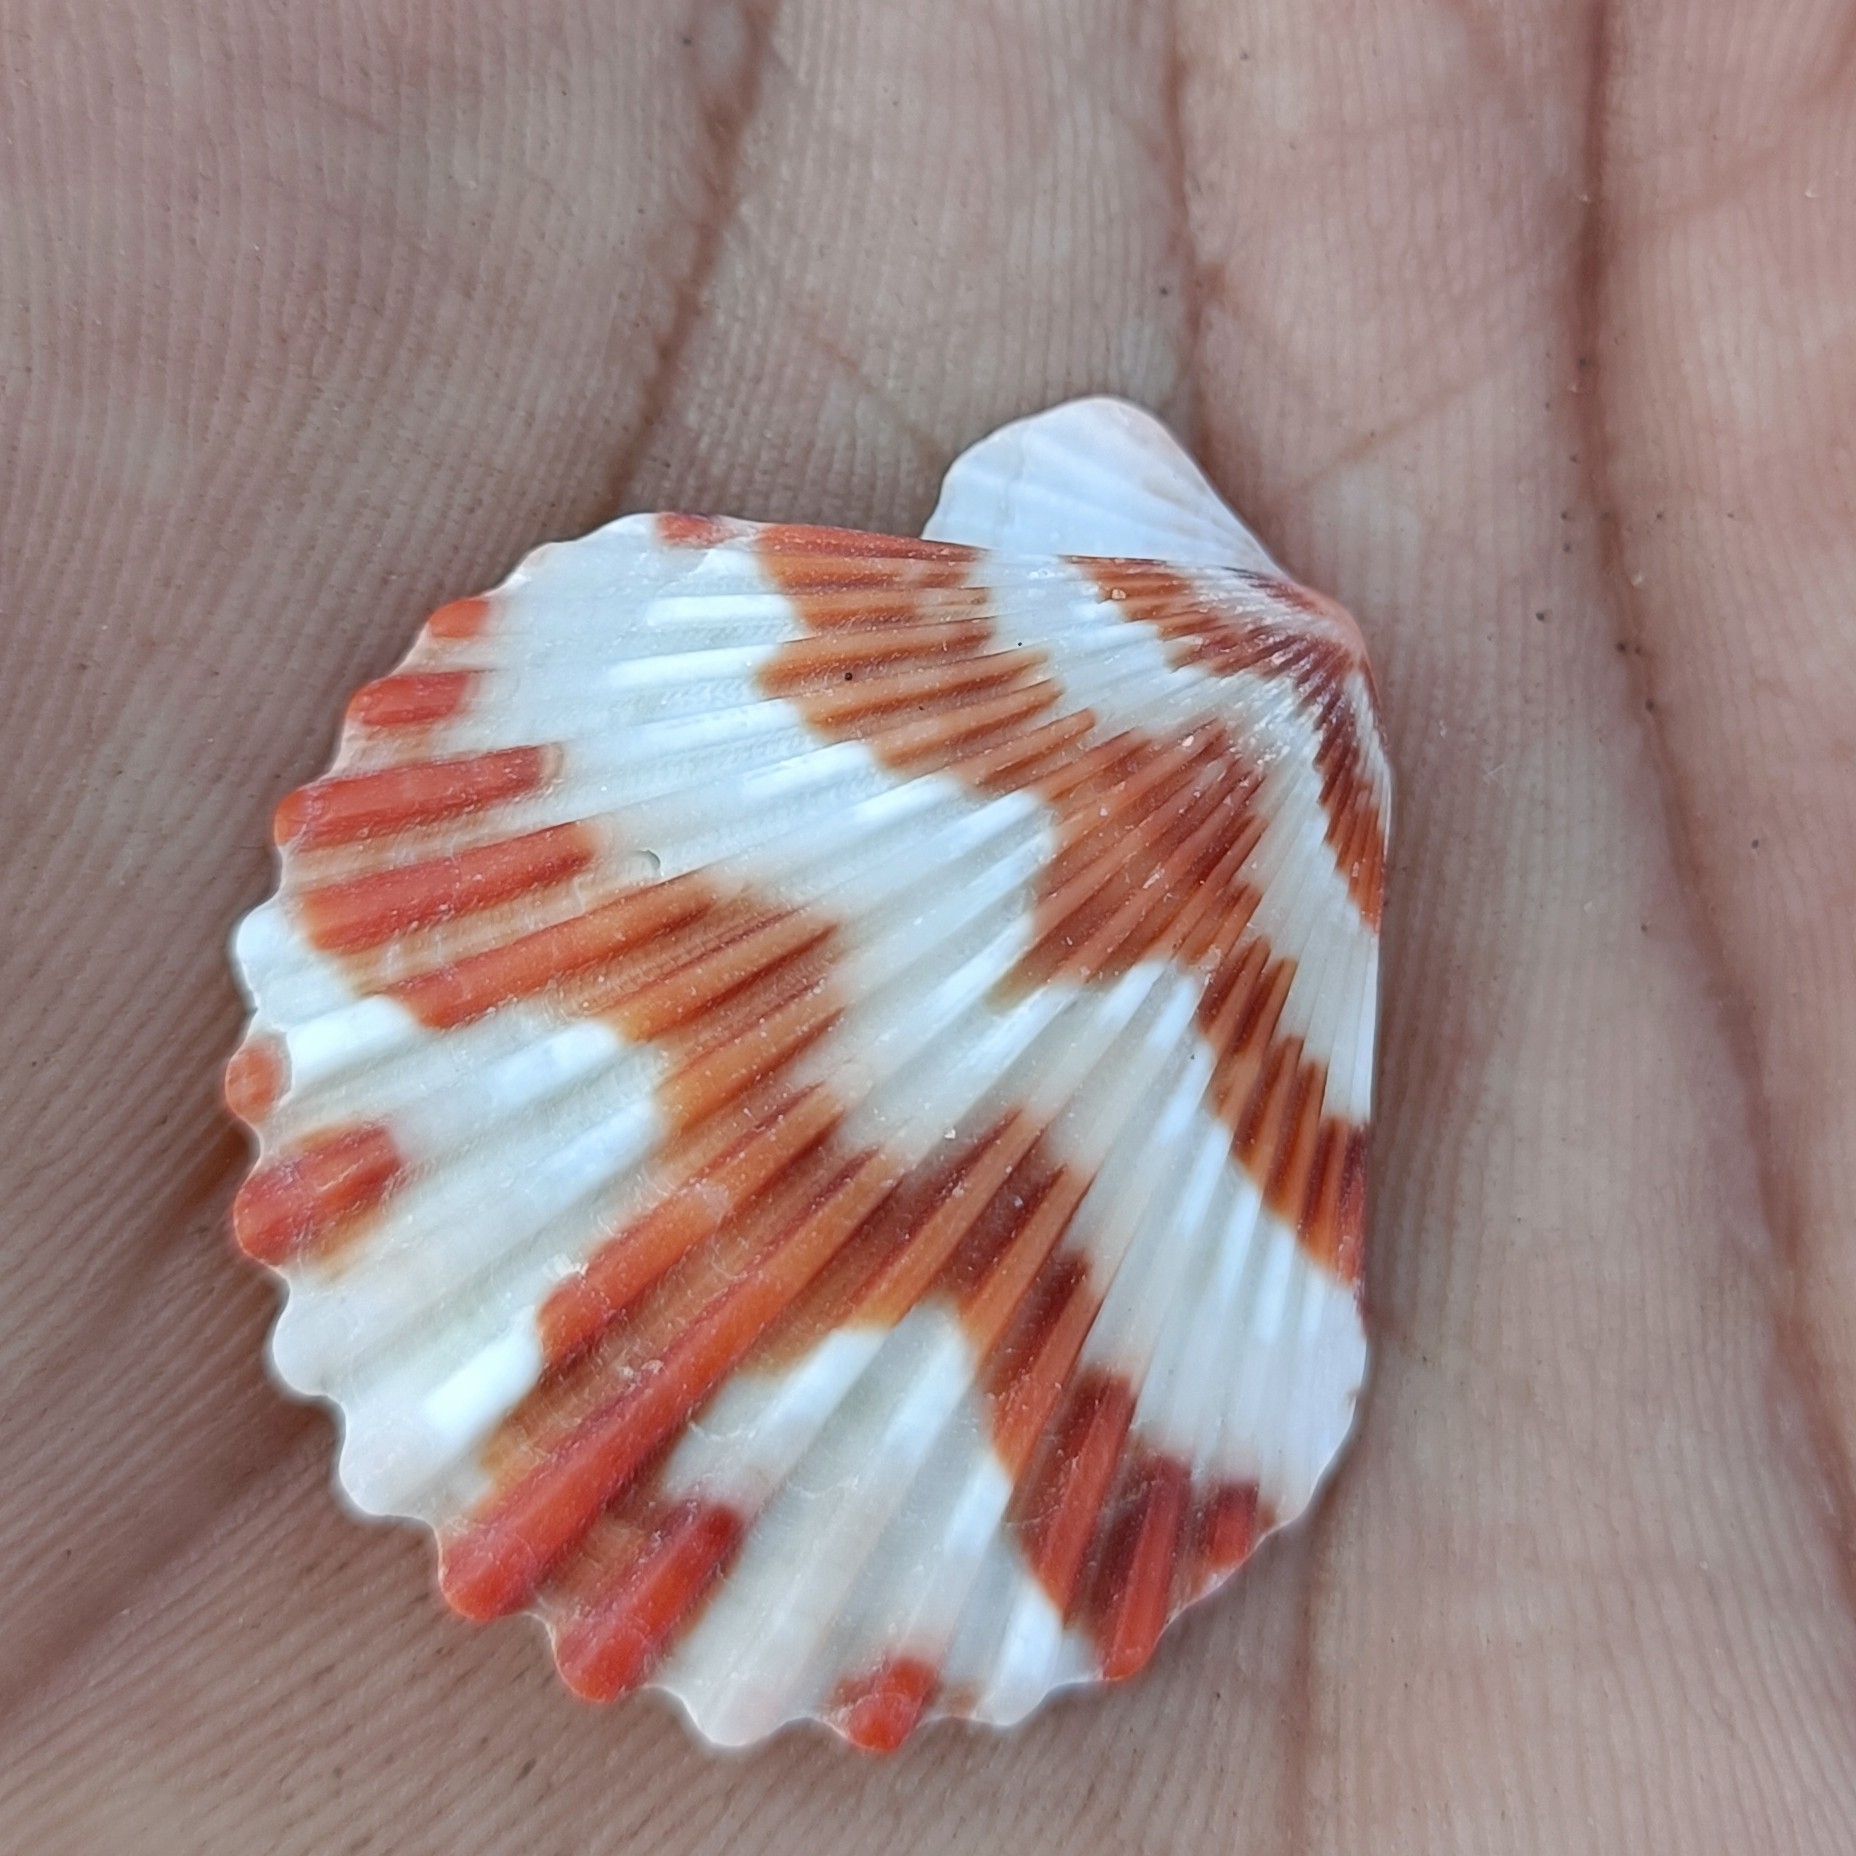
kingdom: Animalia
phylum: Mollusca
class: Bivalvia
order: Pectinida
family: Pectinidae
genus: Volachlamys
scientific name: Volachlamys tranquebaria
